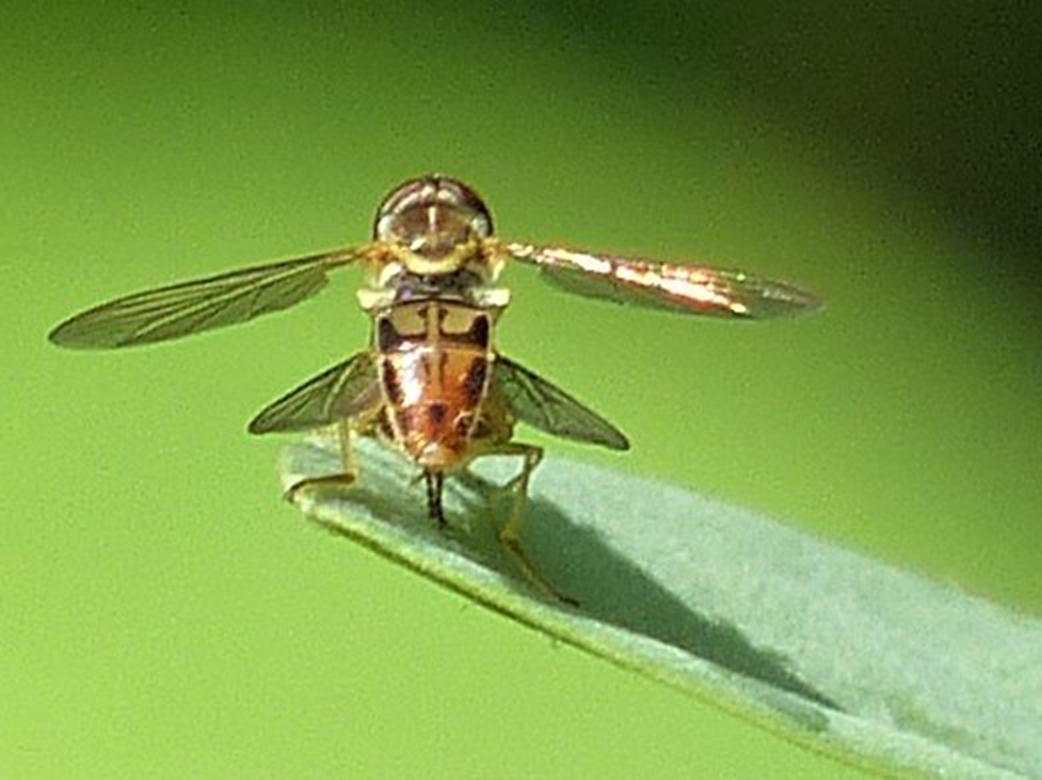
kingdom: Animalia
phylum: Arthropoda
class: Insecta
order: Diptera
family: Syrphidae
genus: Toxomerus
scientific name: Toxomerus marginatus
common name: Syrphid fly
